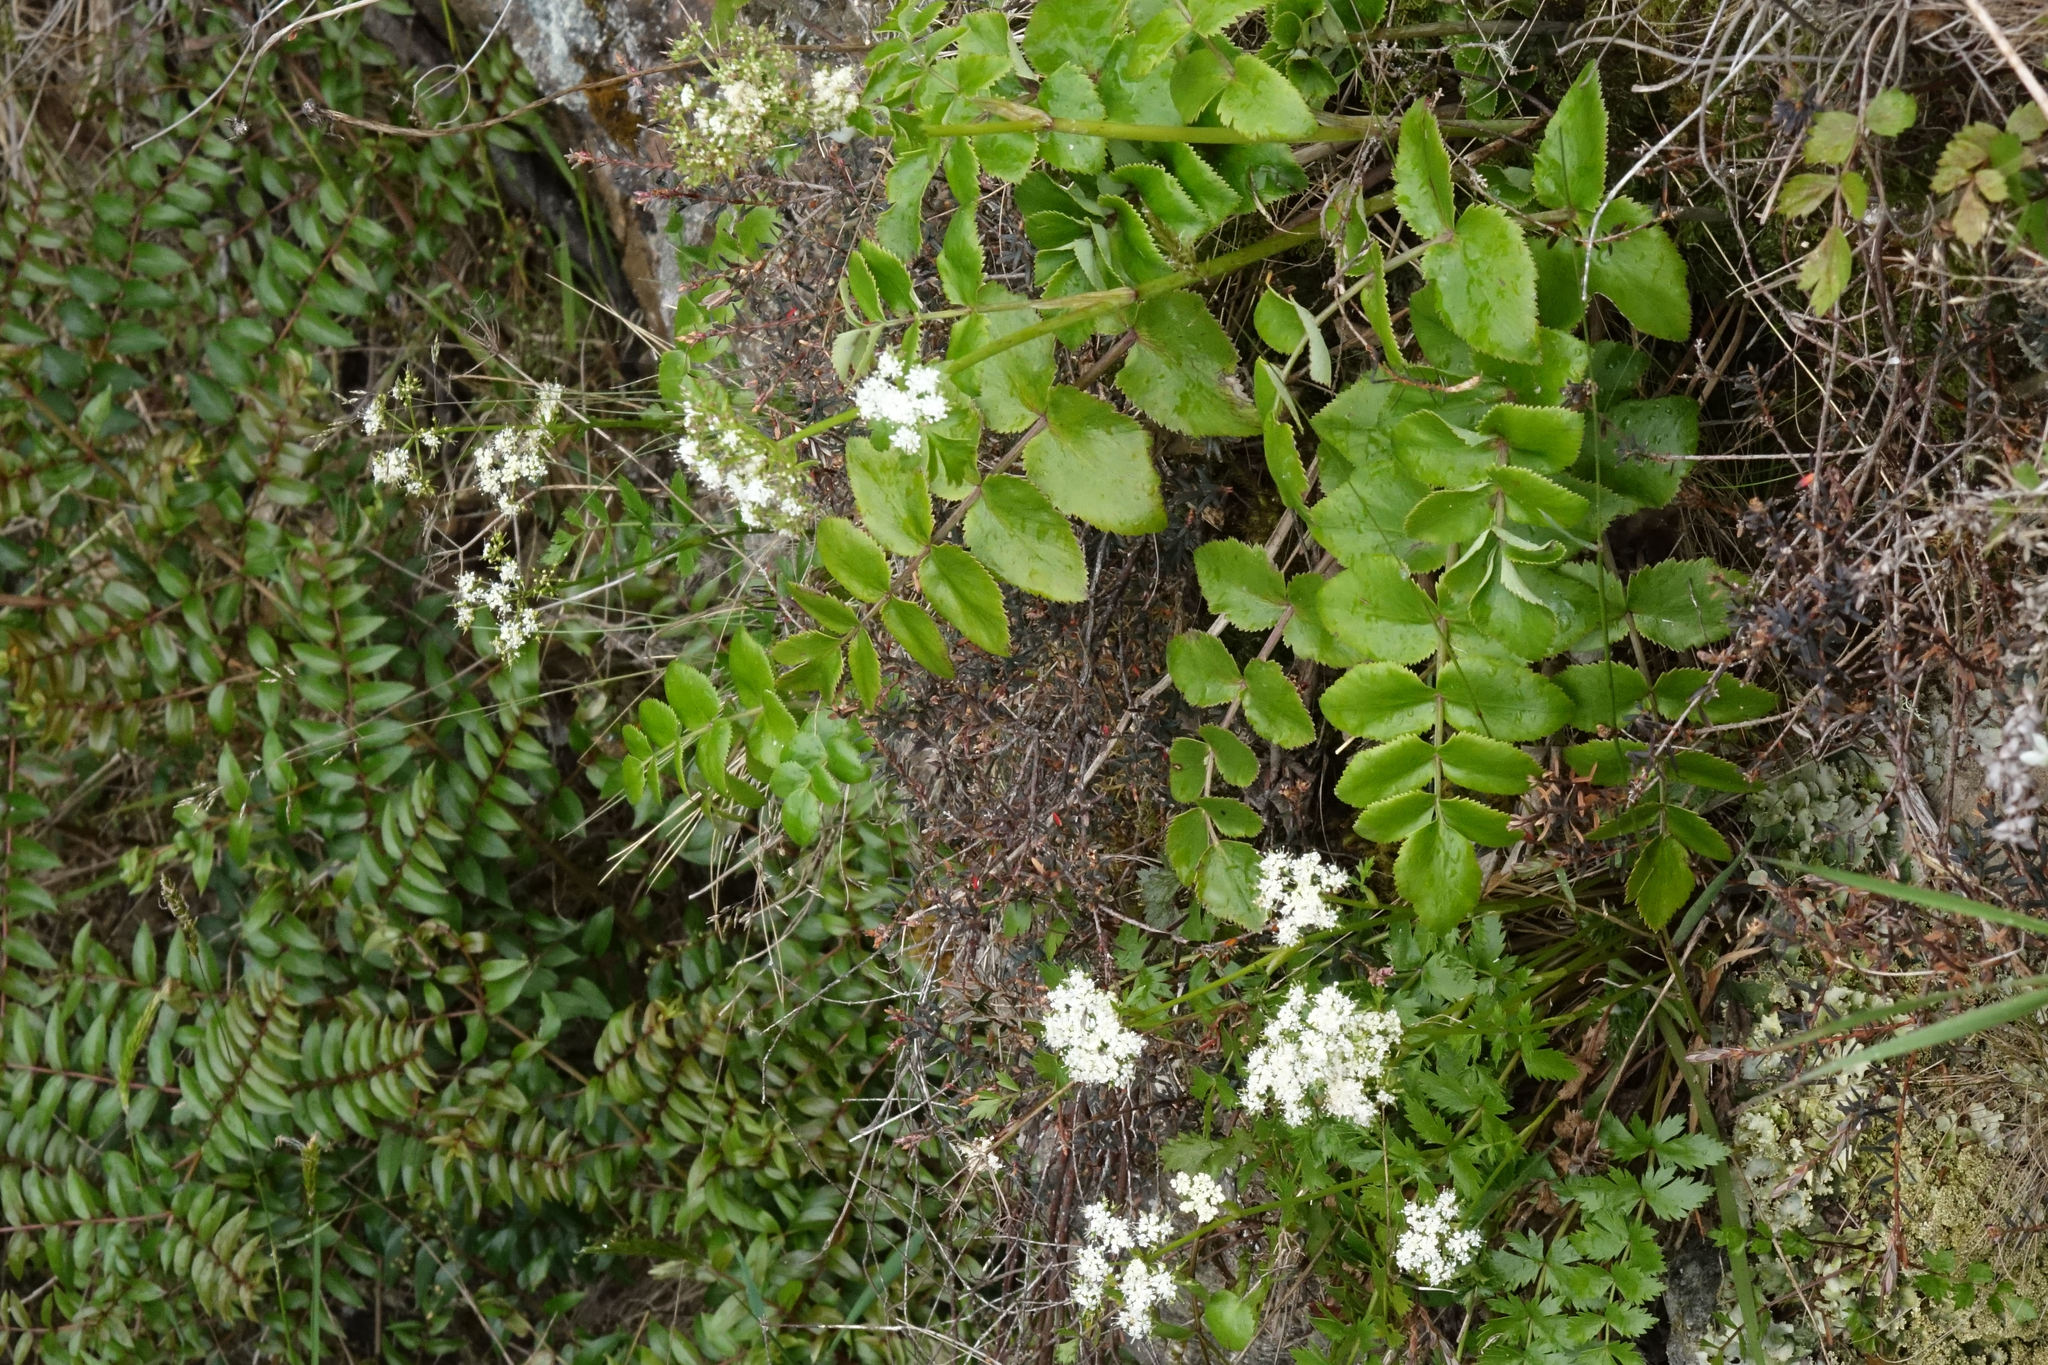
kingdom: Plantae
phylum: Tracheophyta
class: Magnoliopsida
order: Apiales
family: Apiaceae
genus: Gingidia
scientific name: Gingidia montana
